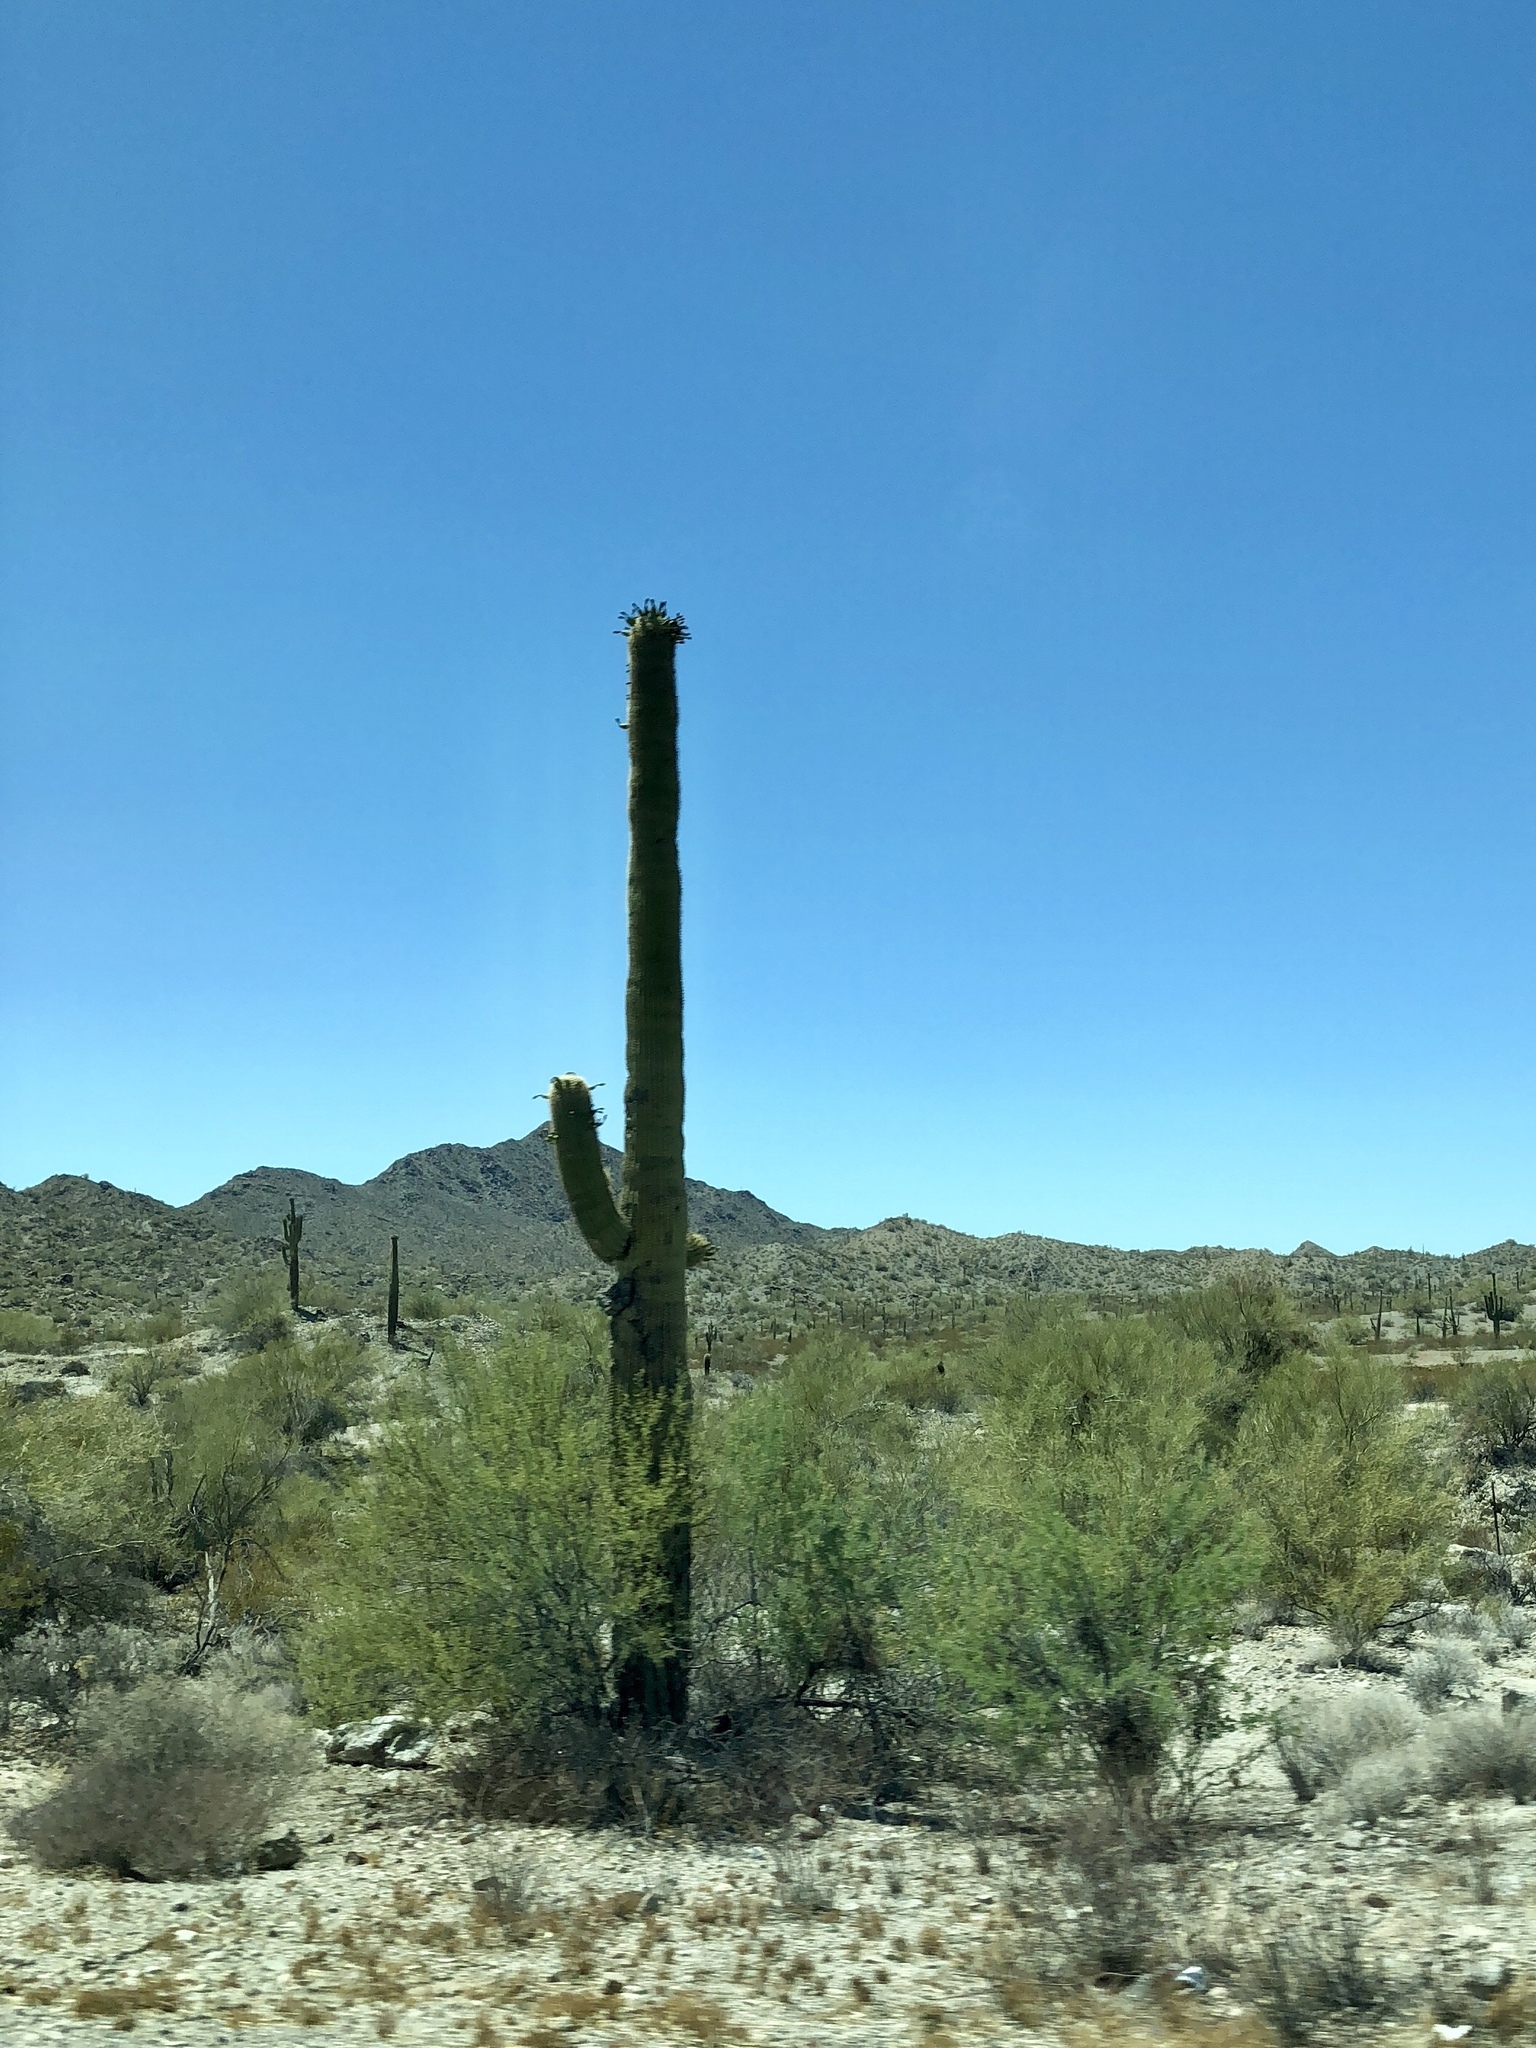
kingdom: Plantae
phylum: Tracheophyta
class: Magnoliopsida
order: Caryophyllales
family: Cactaceae
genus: Carnegiea
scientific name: Carnegiea gigantea
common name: Saguaro
